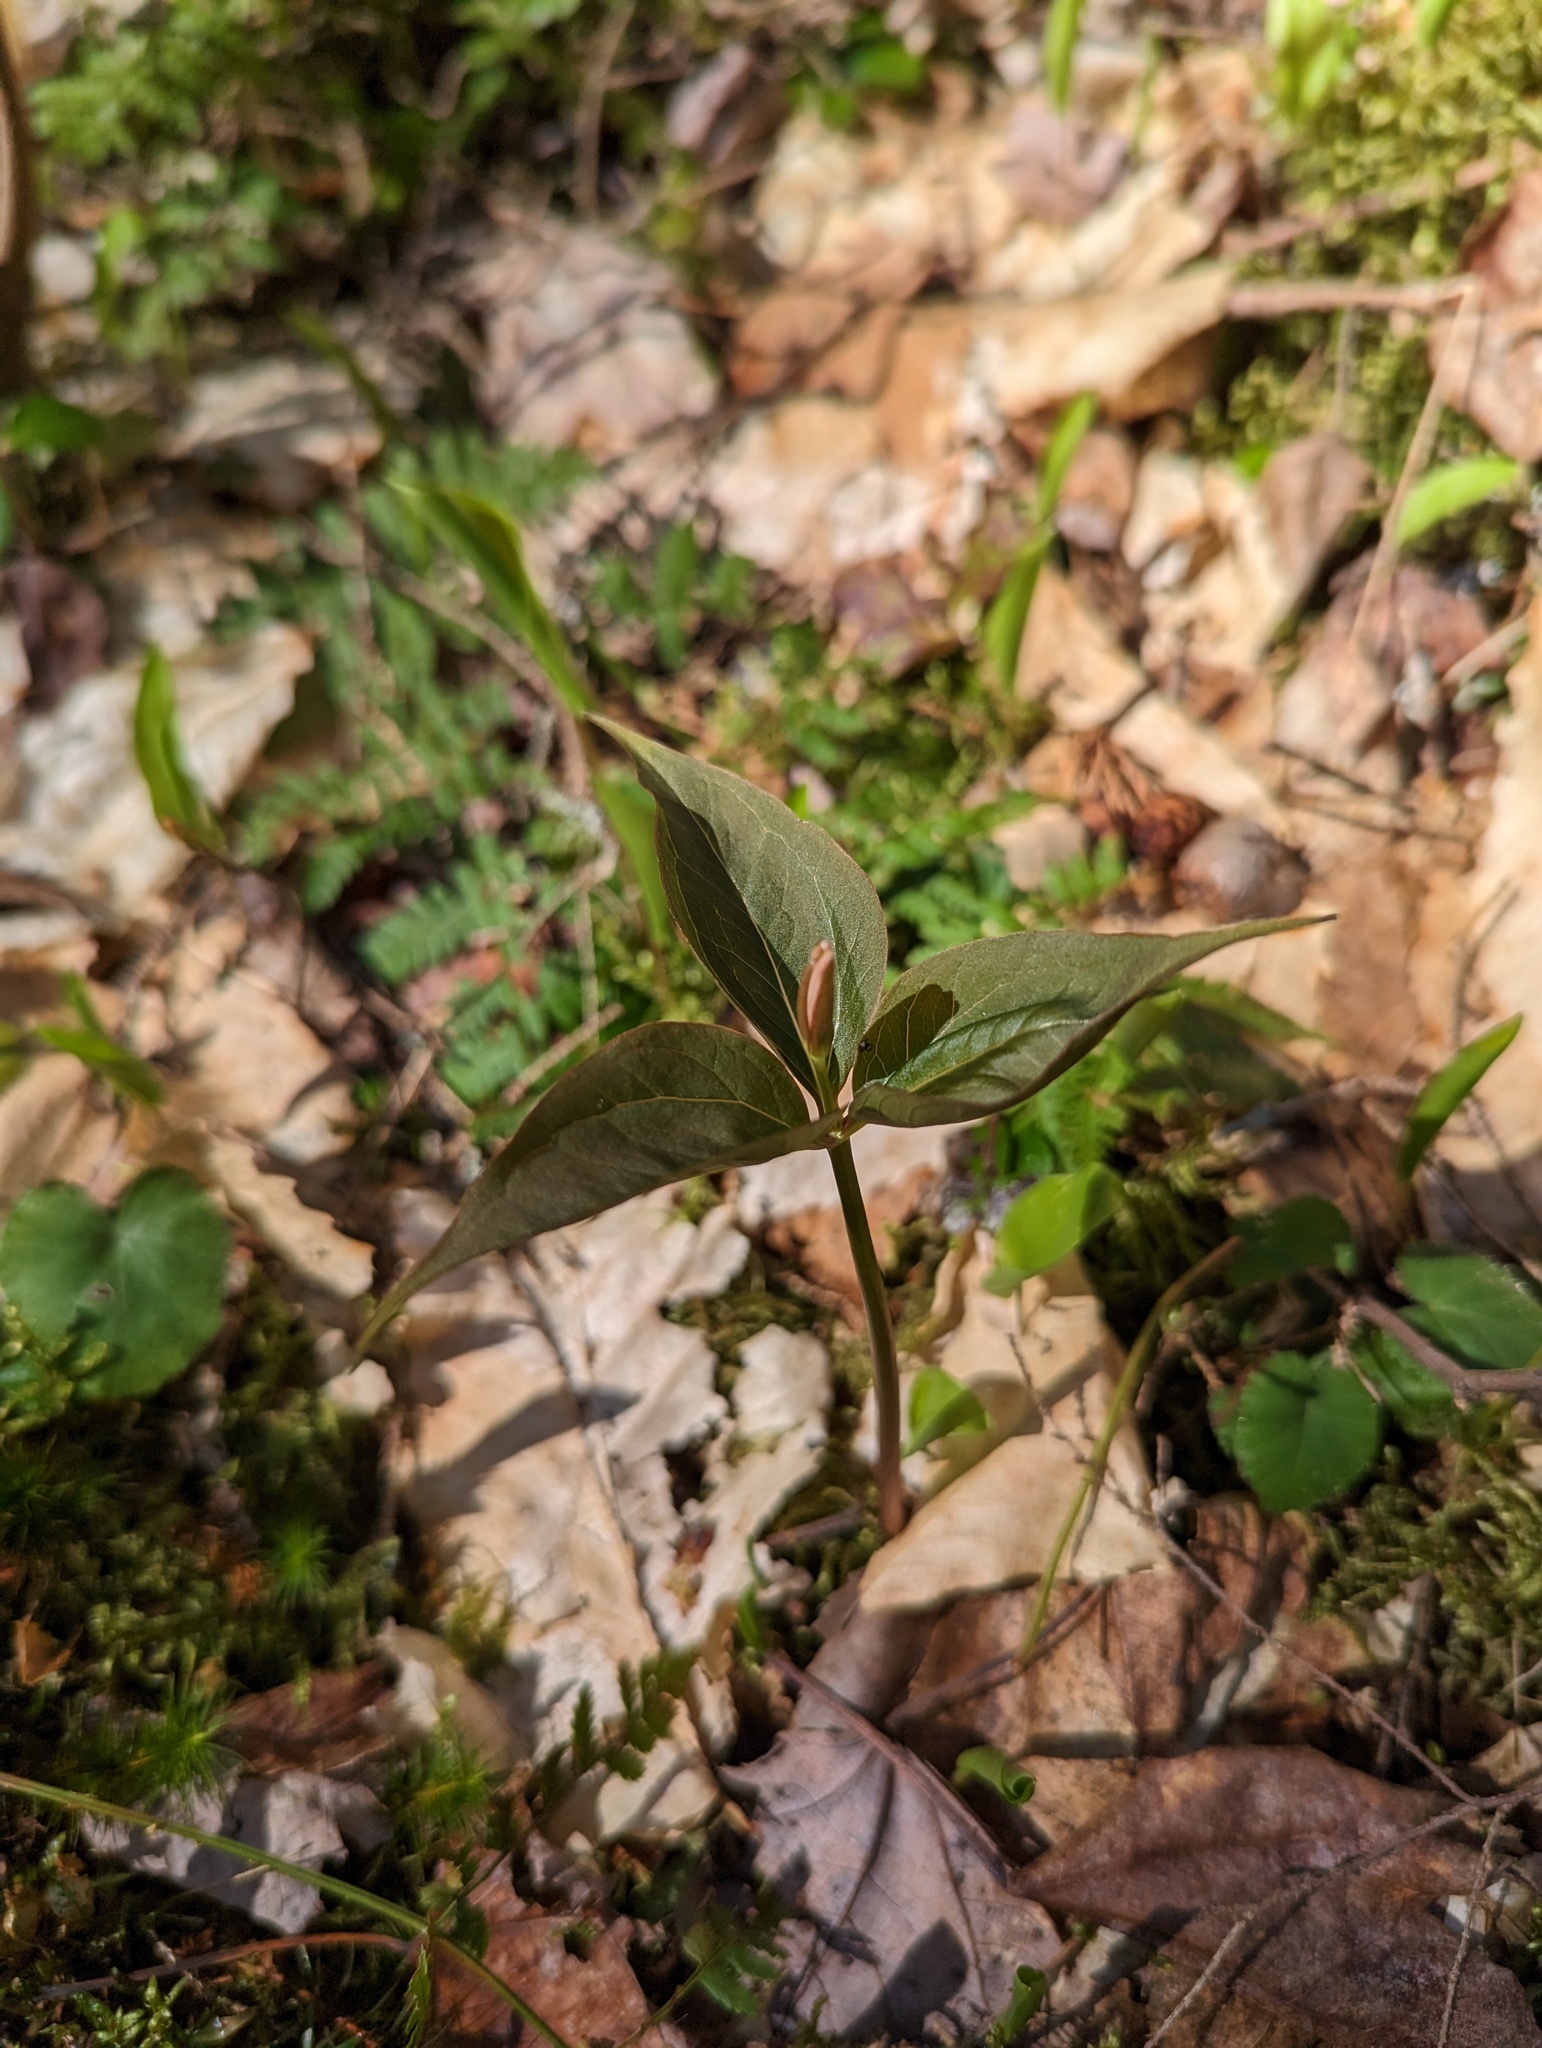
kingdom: Plantae
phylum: Tracheophyta
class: Liliopsida
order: Liliales
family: Melanthiaceae
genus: Trillium
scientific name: Trillium undulatum
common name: Paint trillium
